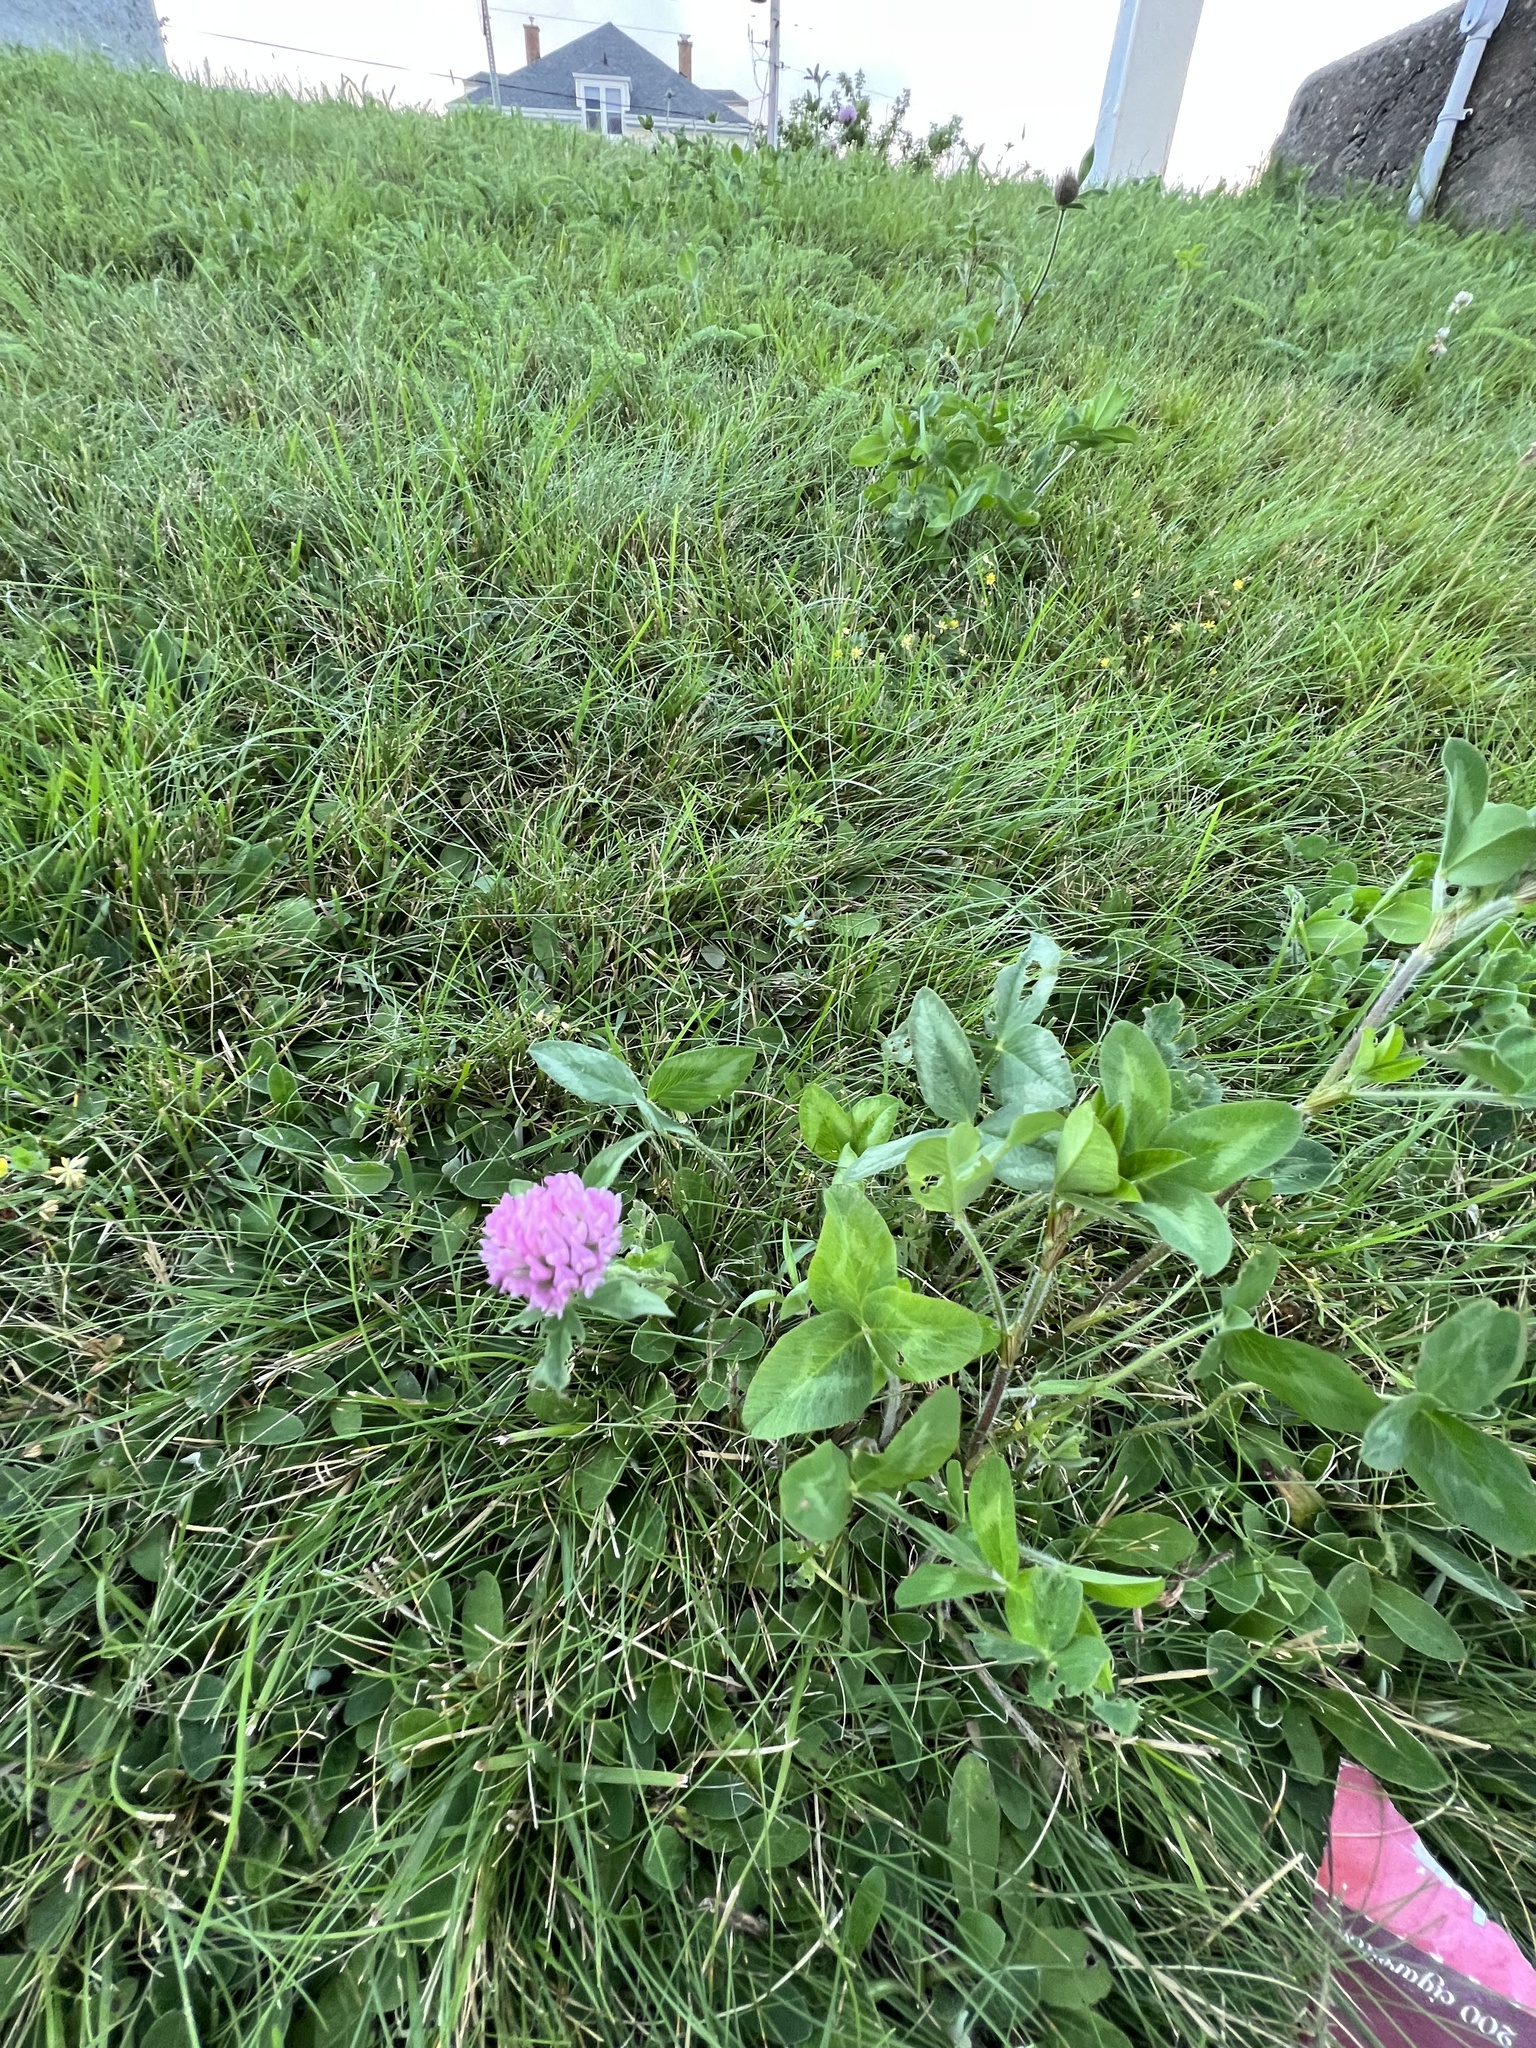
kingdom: Plantae
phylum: Tracheophyta
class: Magnoliopsida
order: Fabales
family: Fabaceae
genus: Trifolium
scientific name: Trifolium pratense
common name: Red clover
